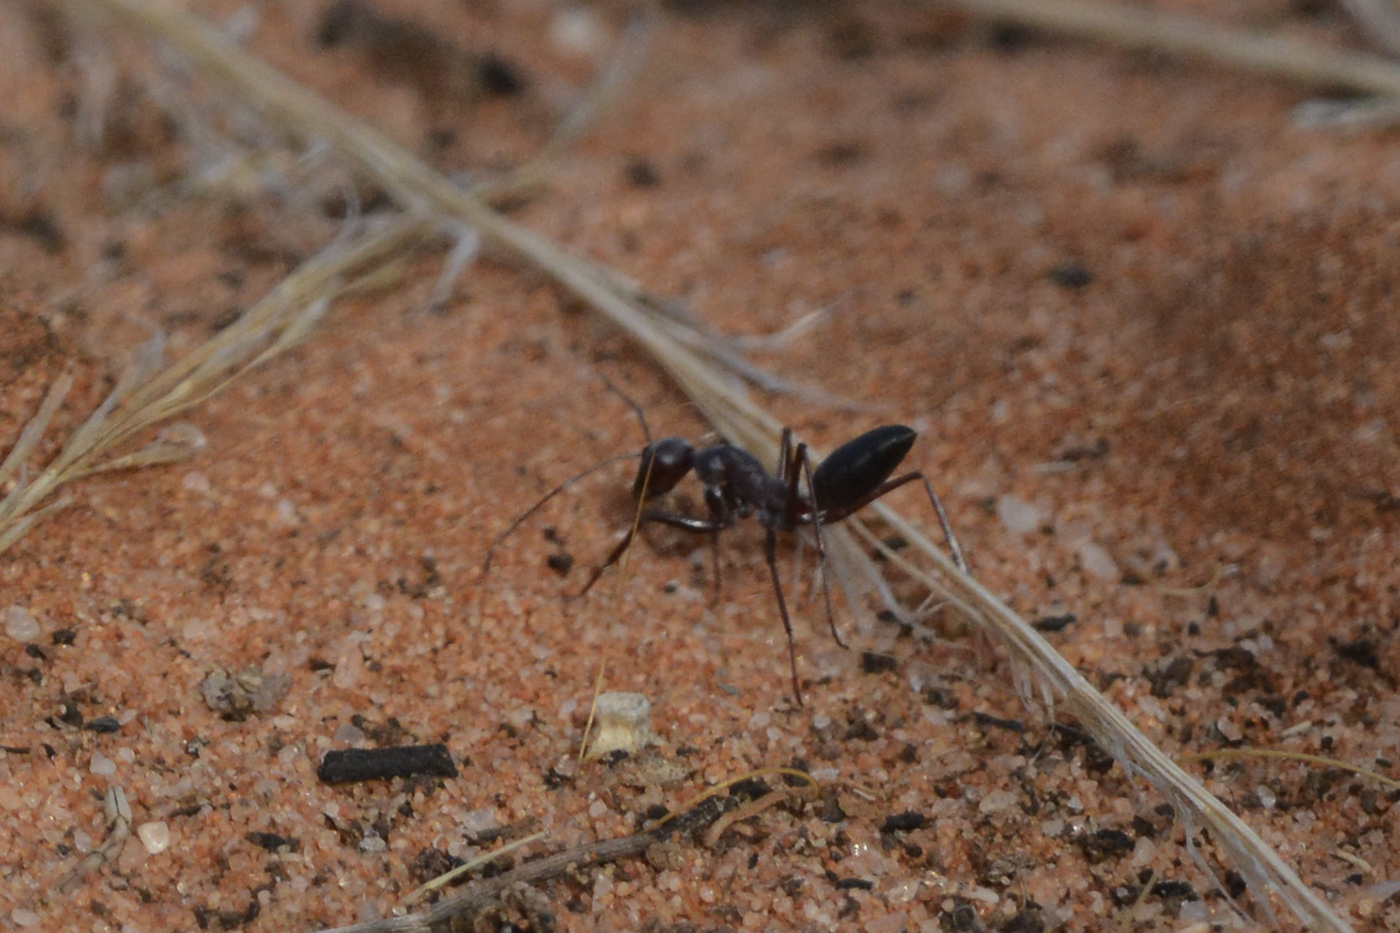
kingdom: Animalia
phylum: Arthropoda
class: Insecta
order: Hymenoptera
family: Formicidae
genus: Camponotus
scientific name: Camponotus aurocinctus
